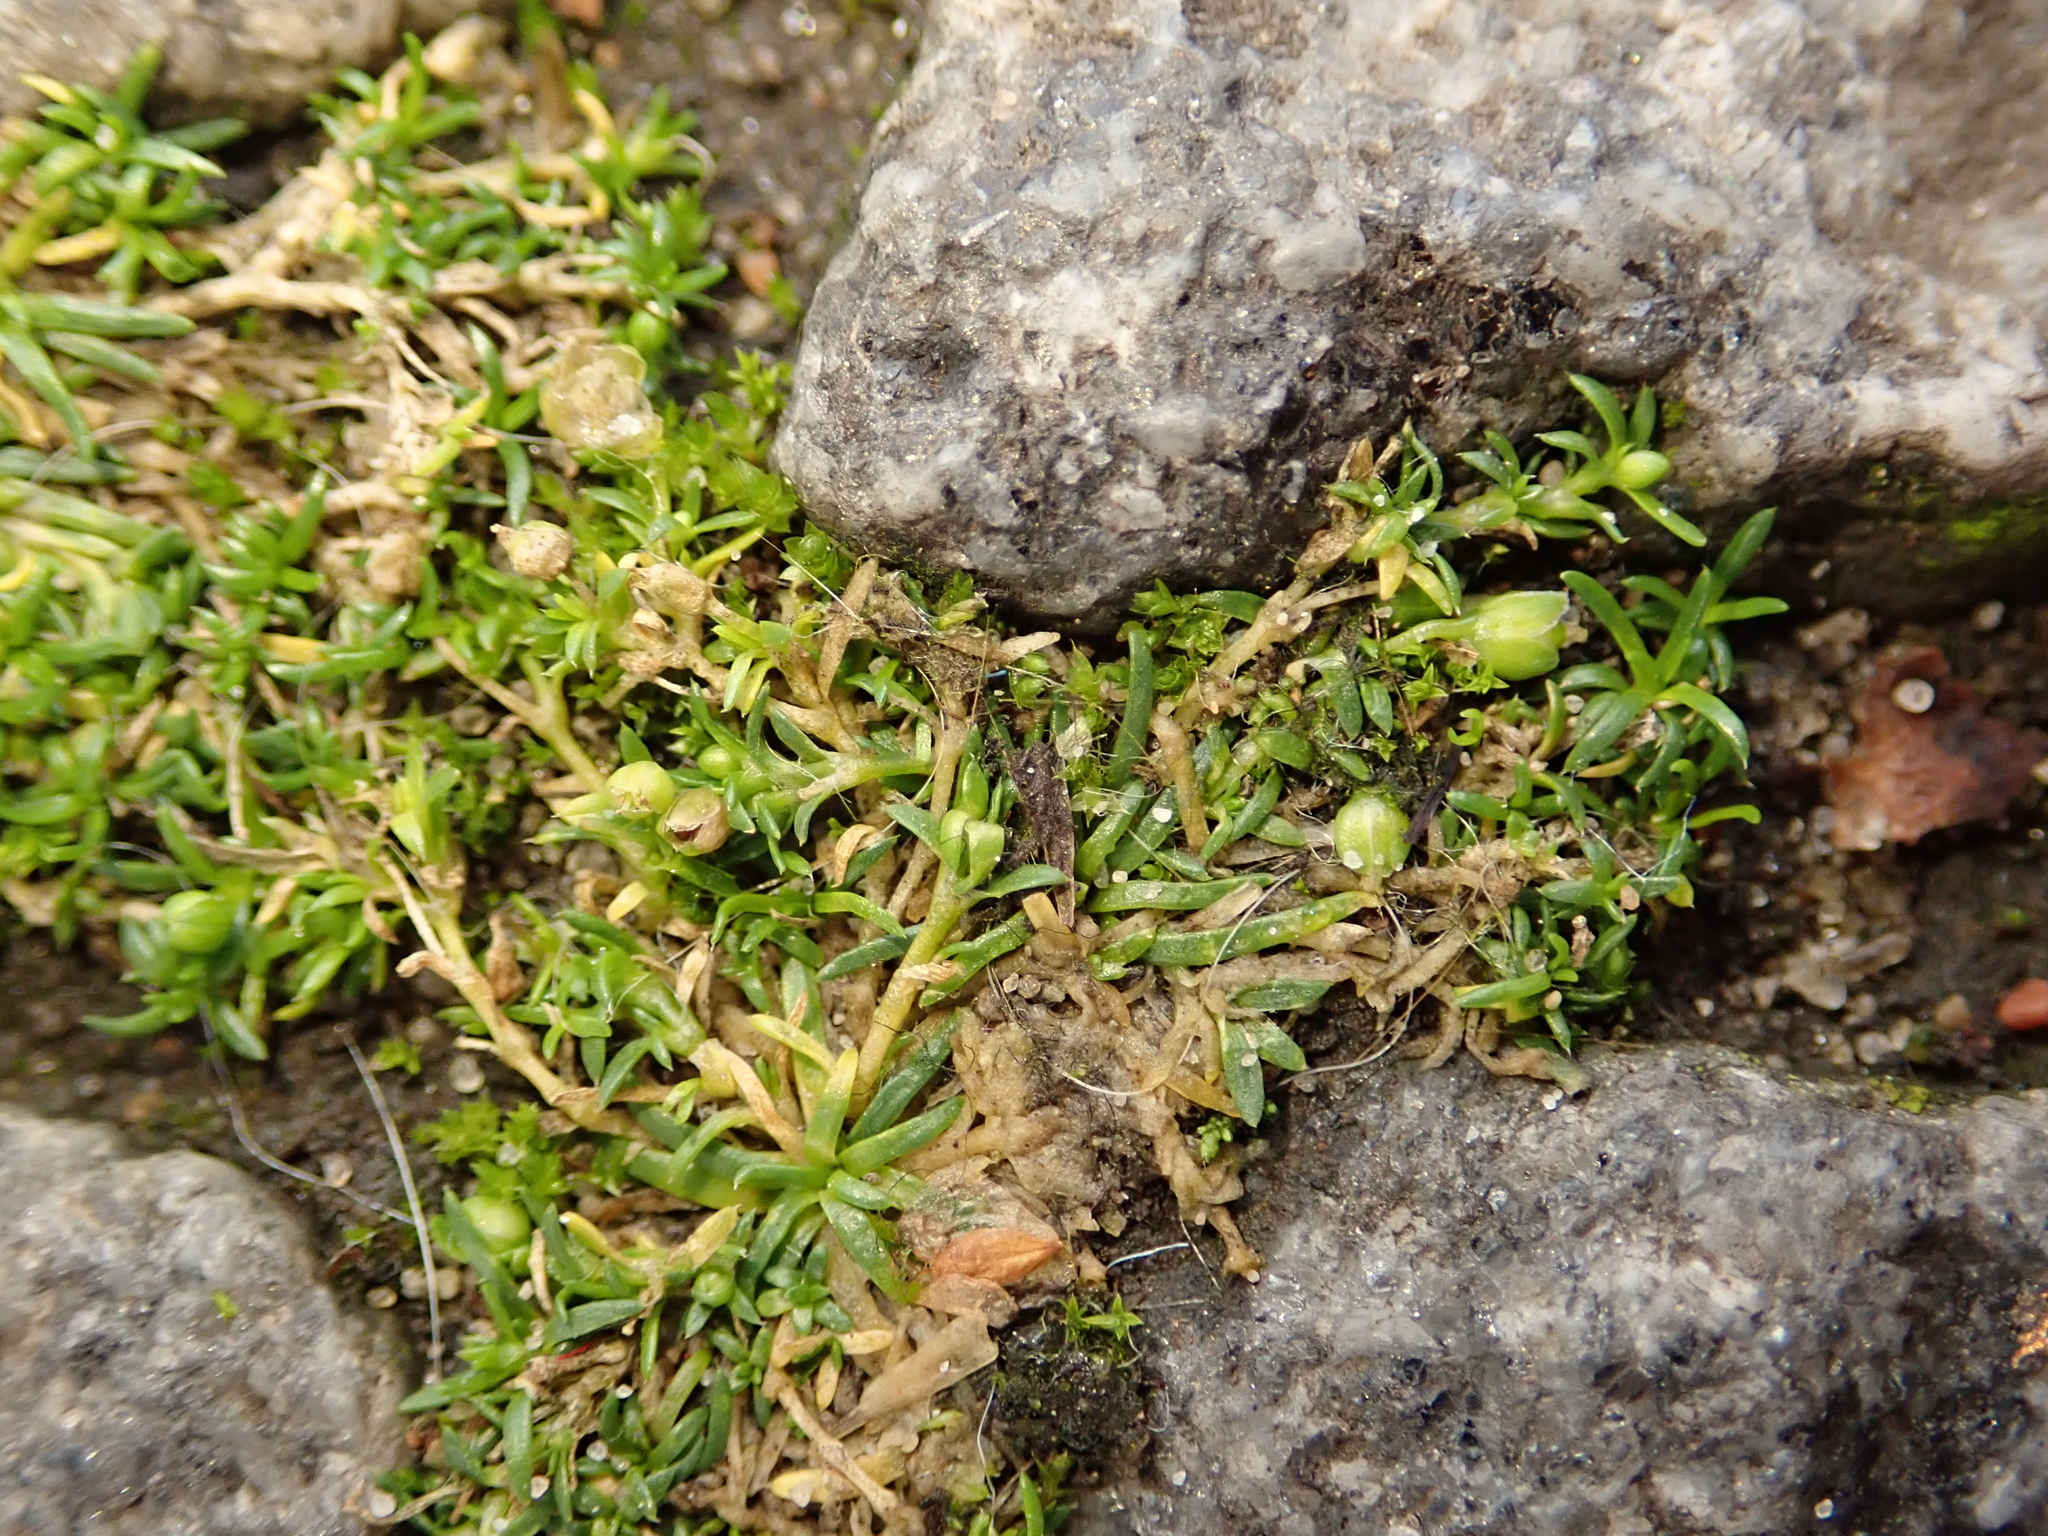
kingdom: Plantae
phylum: Tracheophyta
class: Magnoliopsida
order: Caryophyllales
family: Caryophyllaceae
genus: Sagina
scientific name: Sagina procumbens
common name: Procumbent pearlwort
